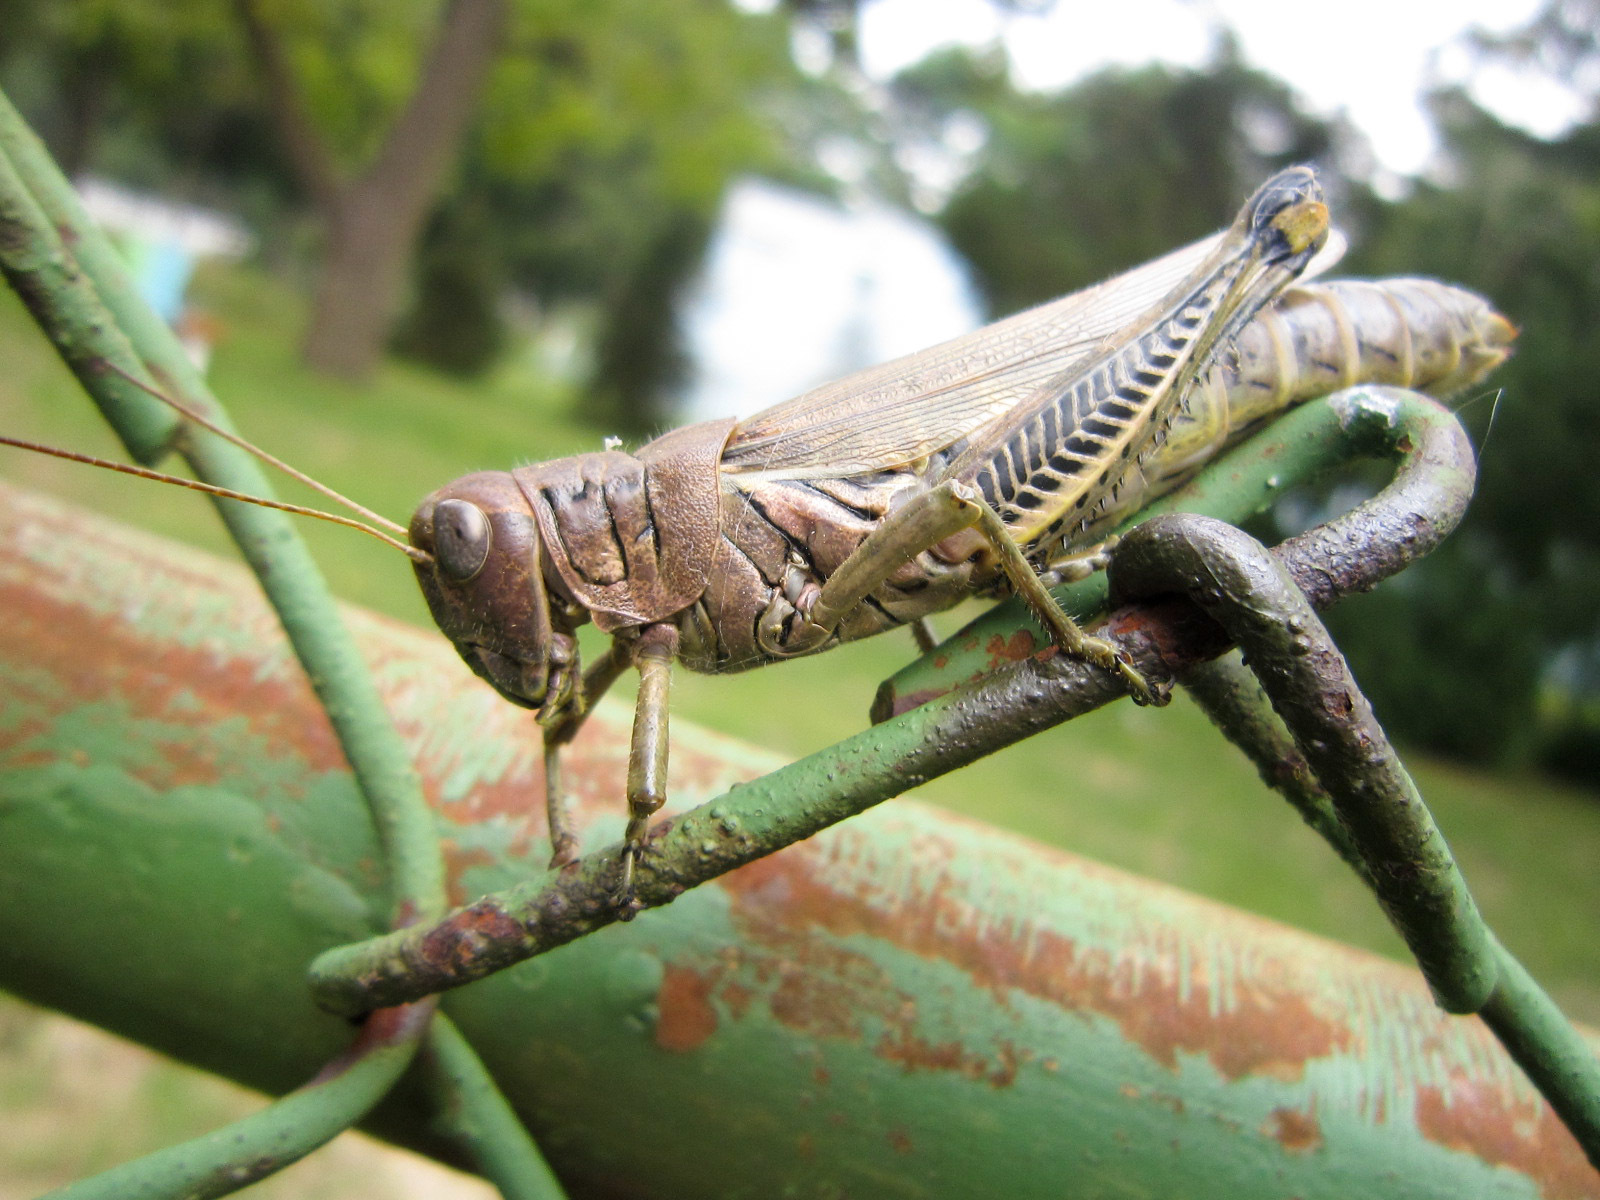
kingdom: Animalia
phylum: Arthropoda
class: Insecta
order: Orthoptera
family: Acrididae
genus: Melanoplus
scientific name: Melanoplus differentialis
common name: Differential grasshopper
